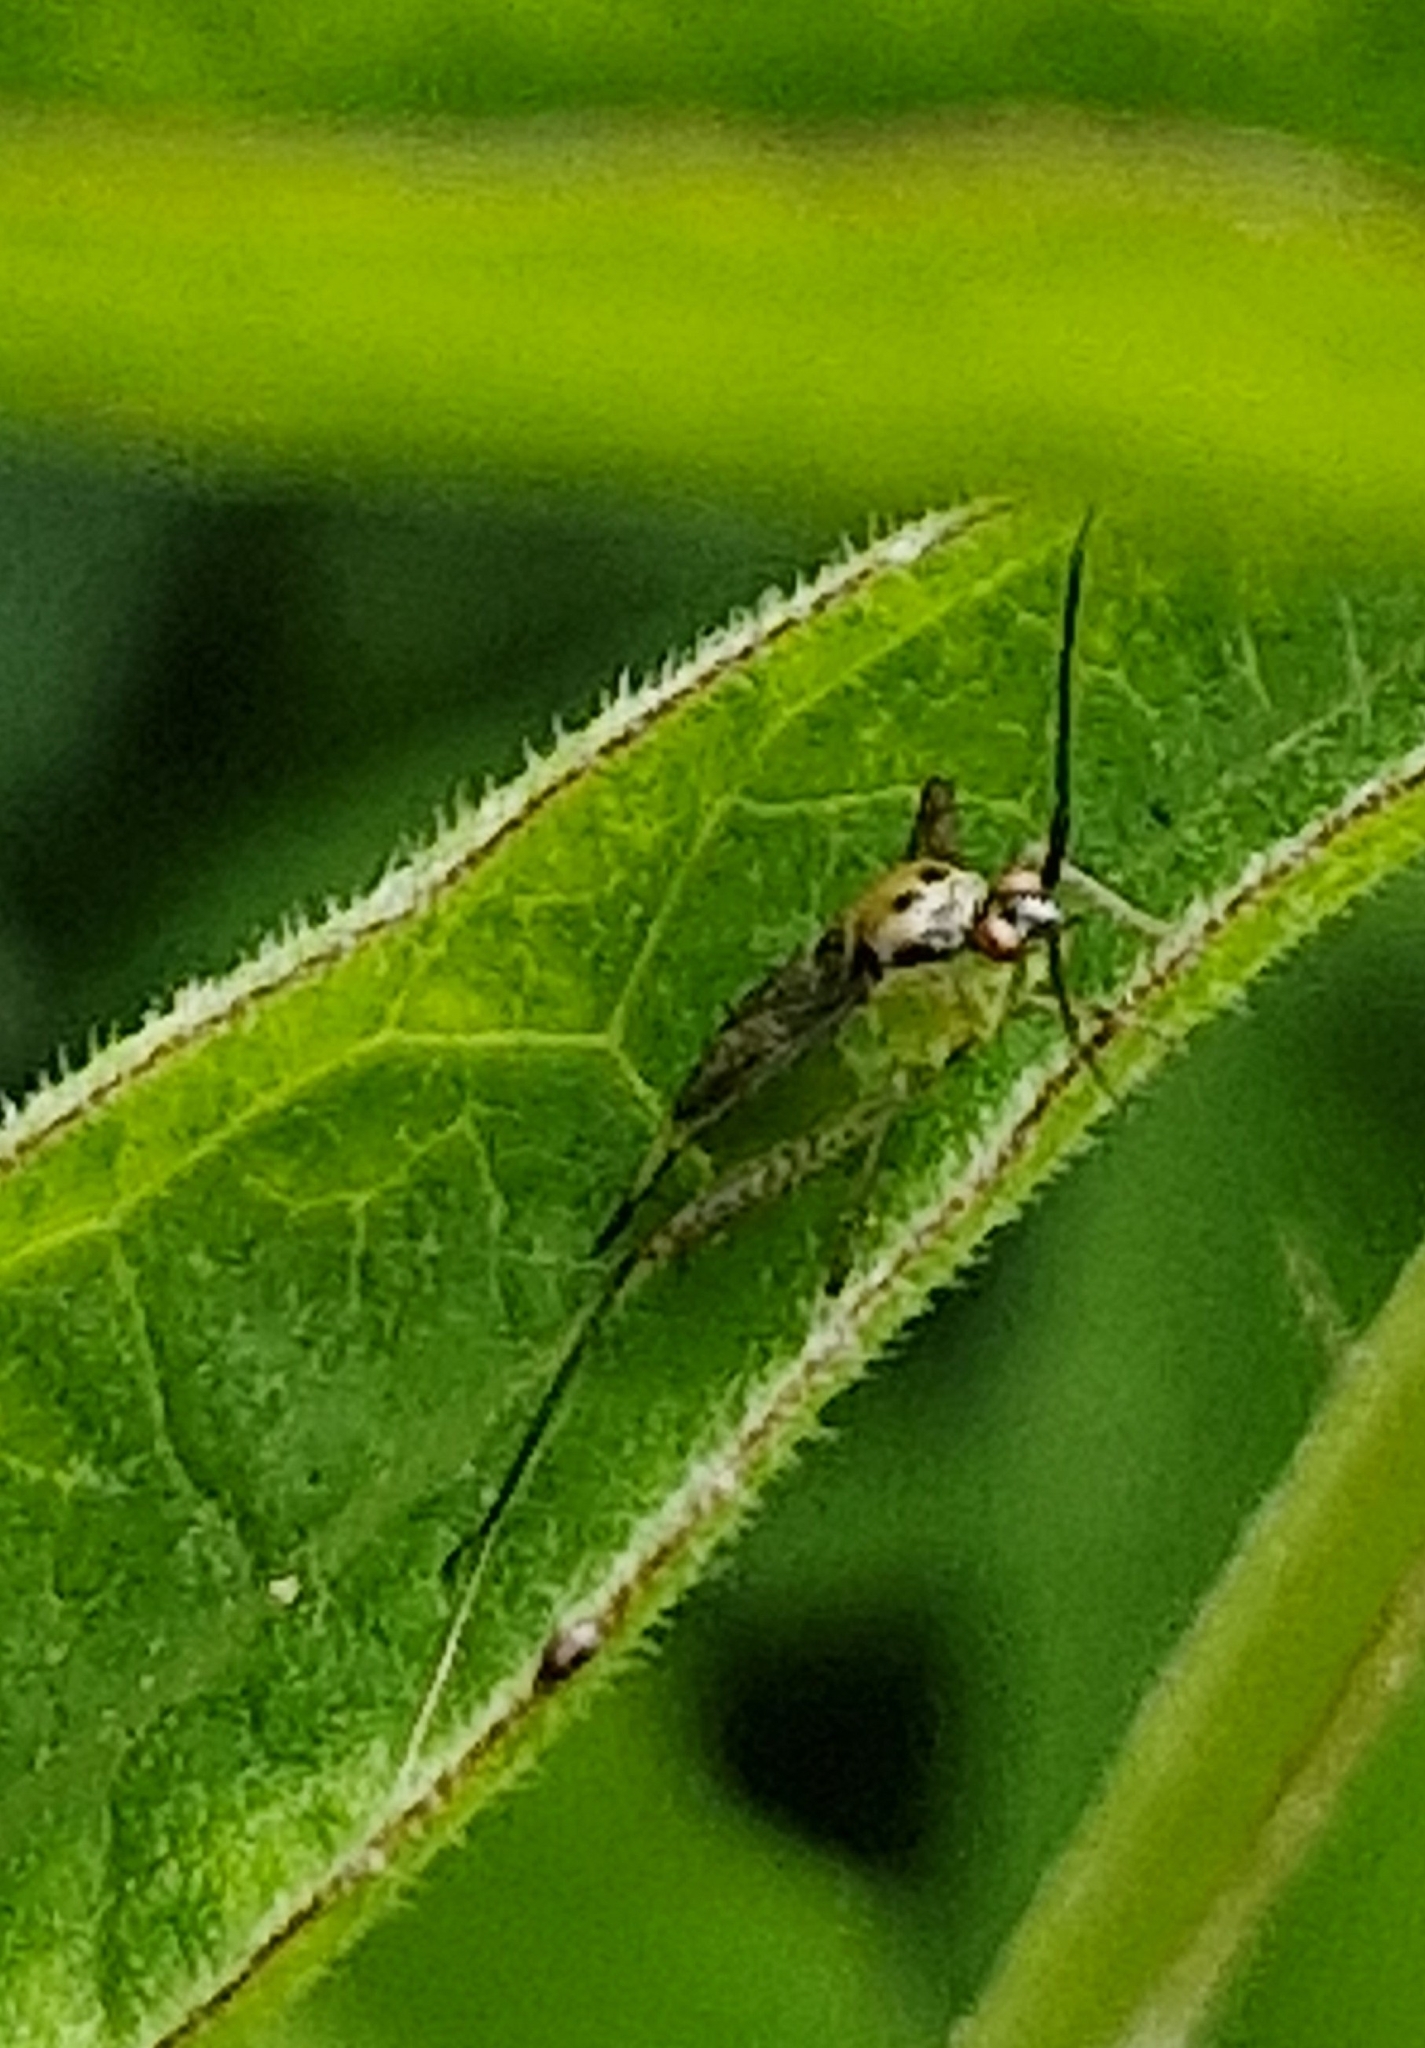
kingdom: Animalia
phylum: Arthropoda
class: Insecta
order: Hemiptera
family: Miridae
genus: Closterotomus
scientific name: Closterotomus trivialis
